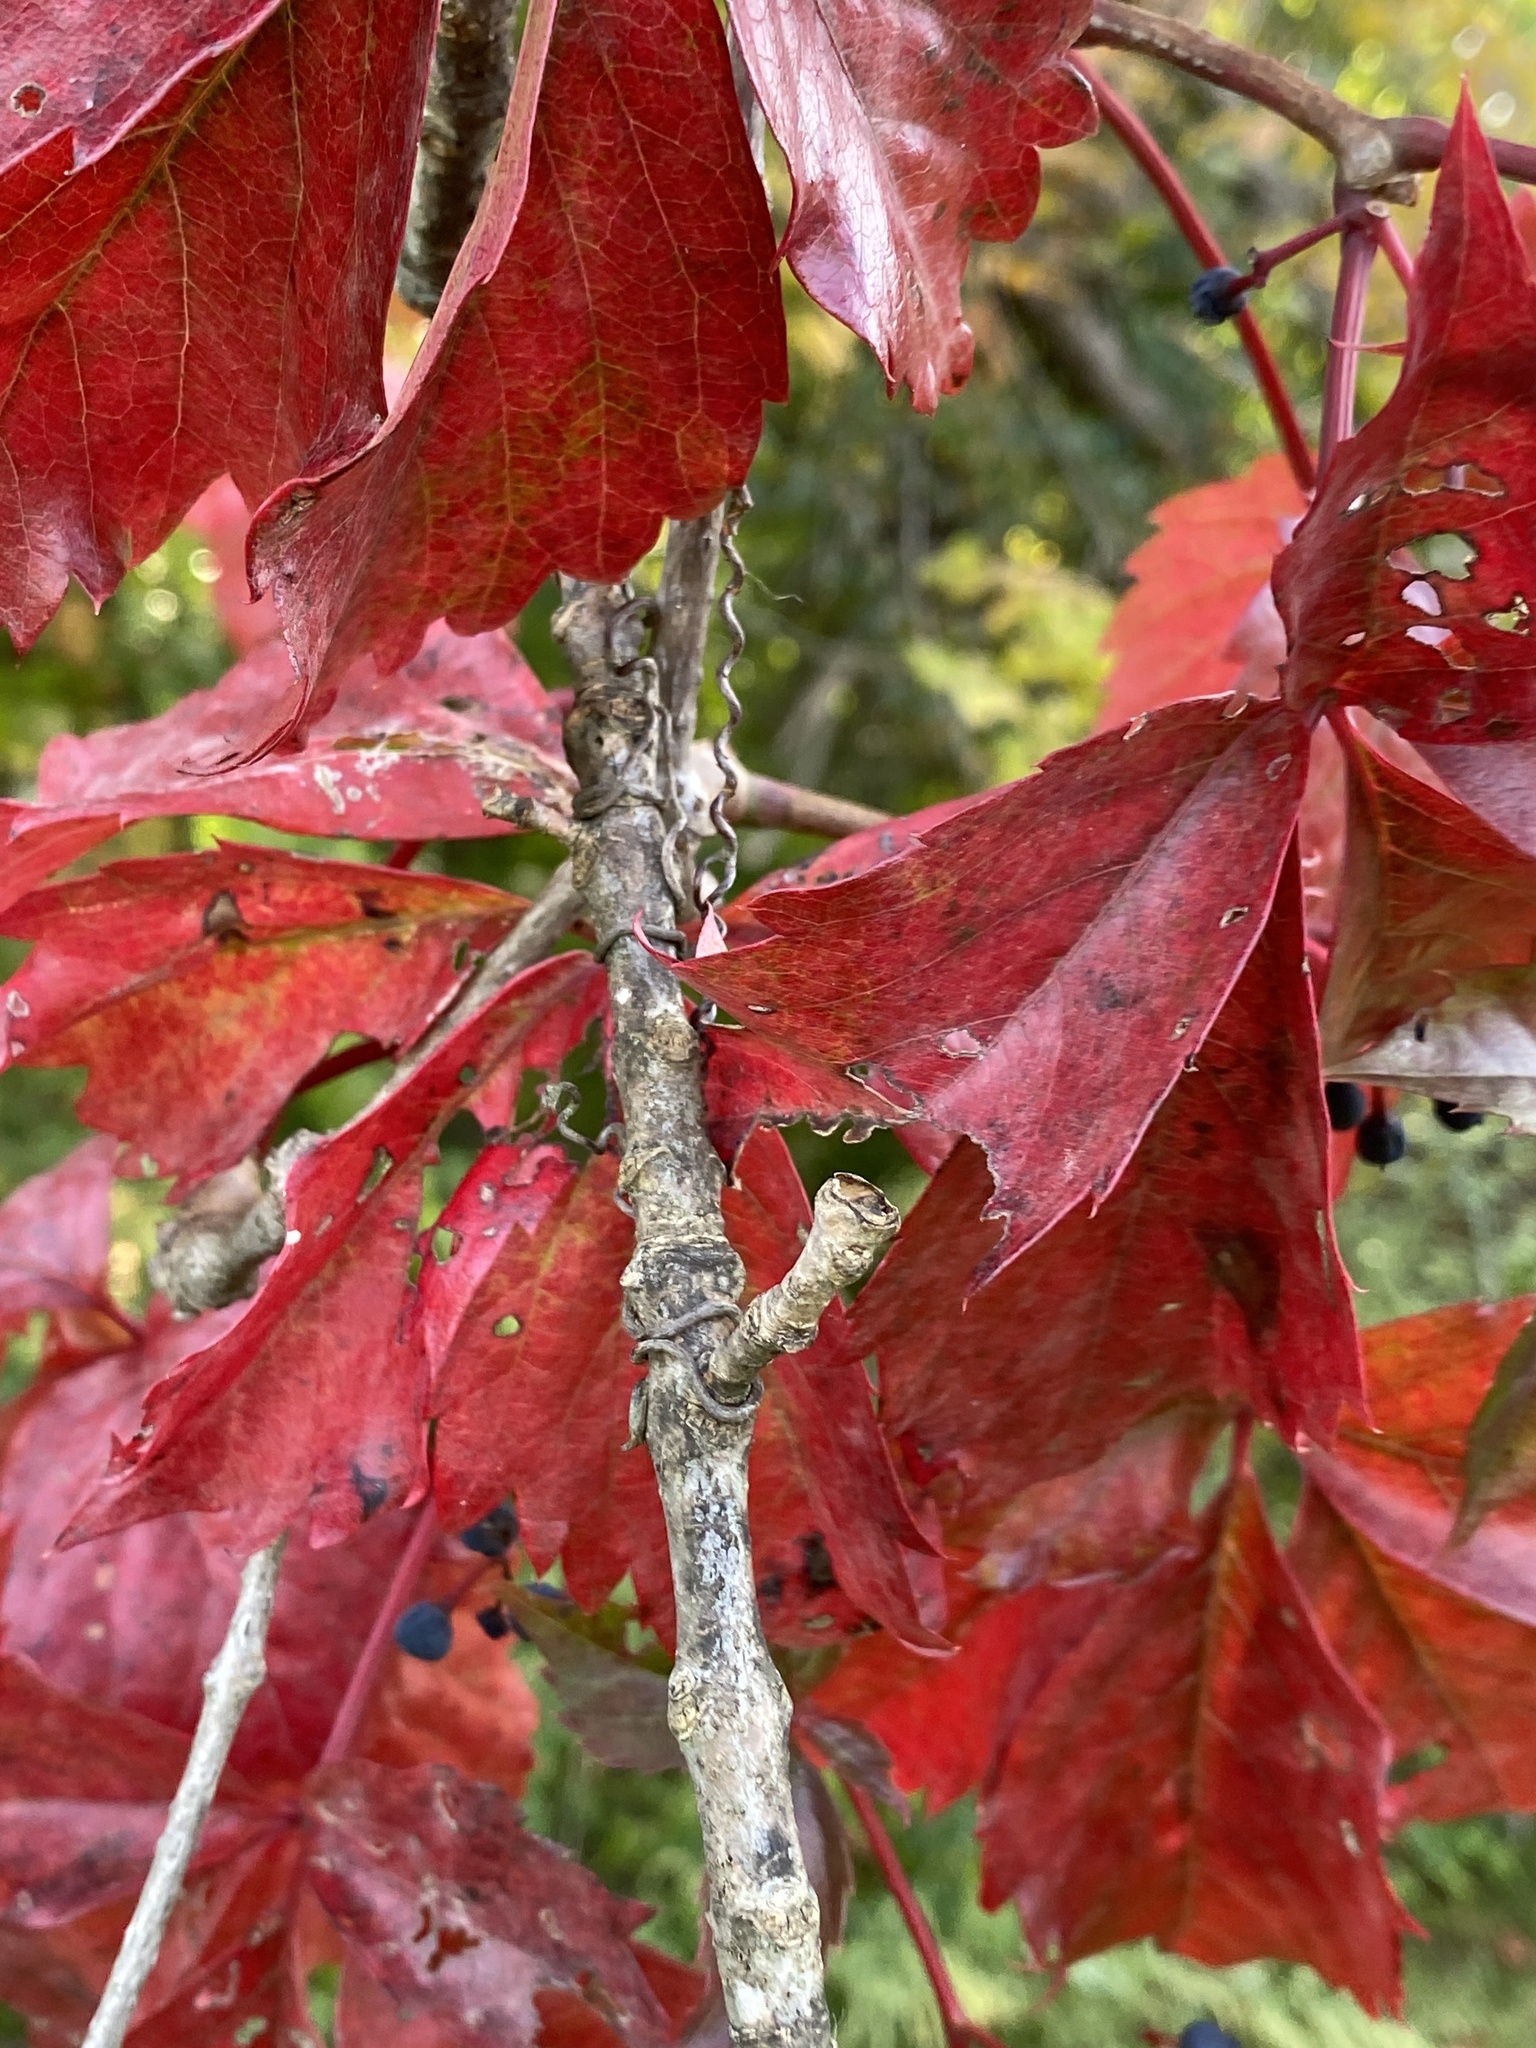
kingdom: Plantae
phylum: Tracheophyta
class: Magnoliopsida
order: Vitales
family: Vitaceae
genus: Parthenocissus
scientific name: Parthenocissus quinquefolia
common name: Virginia-creeper
